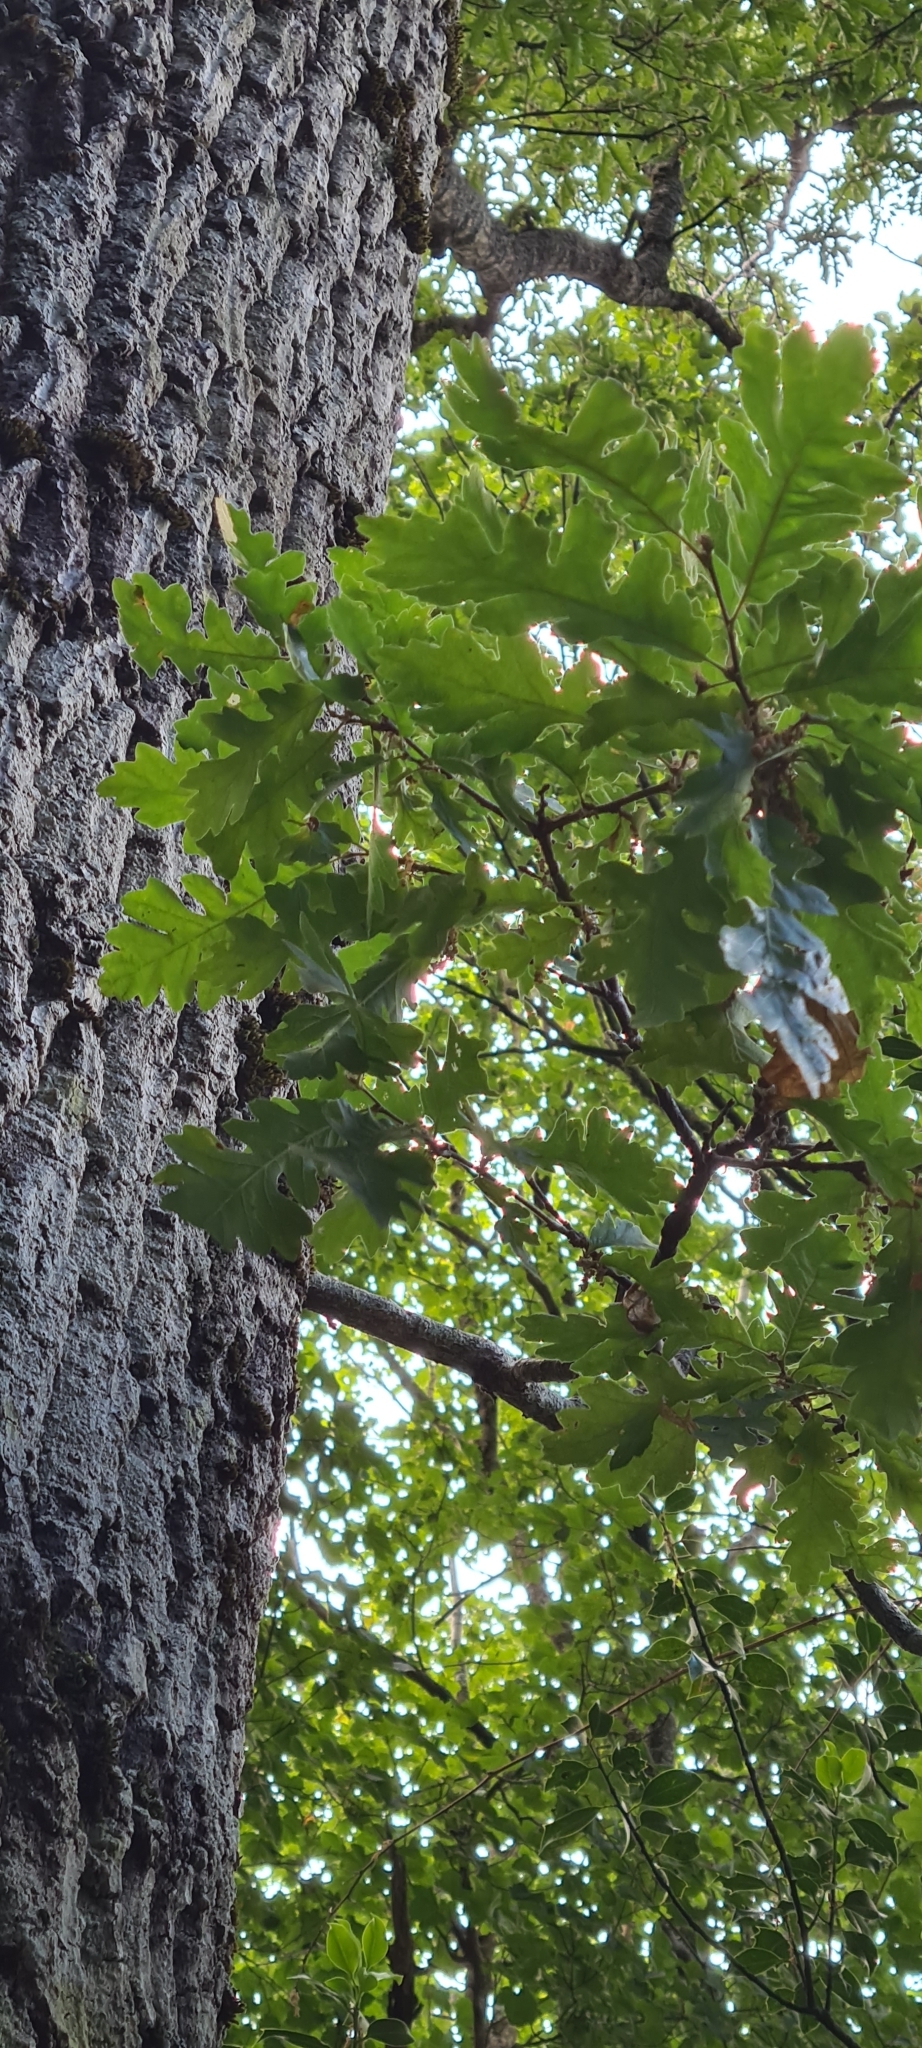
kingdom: Plantae
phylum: Tracheophyta
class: Magnoliopsida
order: Fagales
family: Fagaceae
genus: Quercus
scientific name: Quercus cerris
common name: Turkey oak
